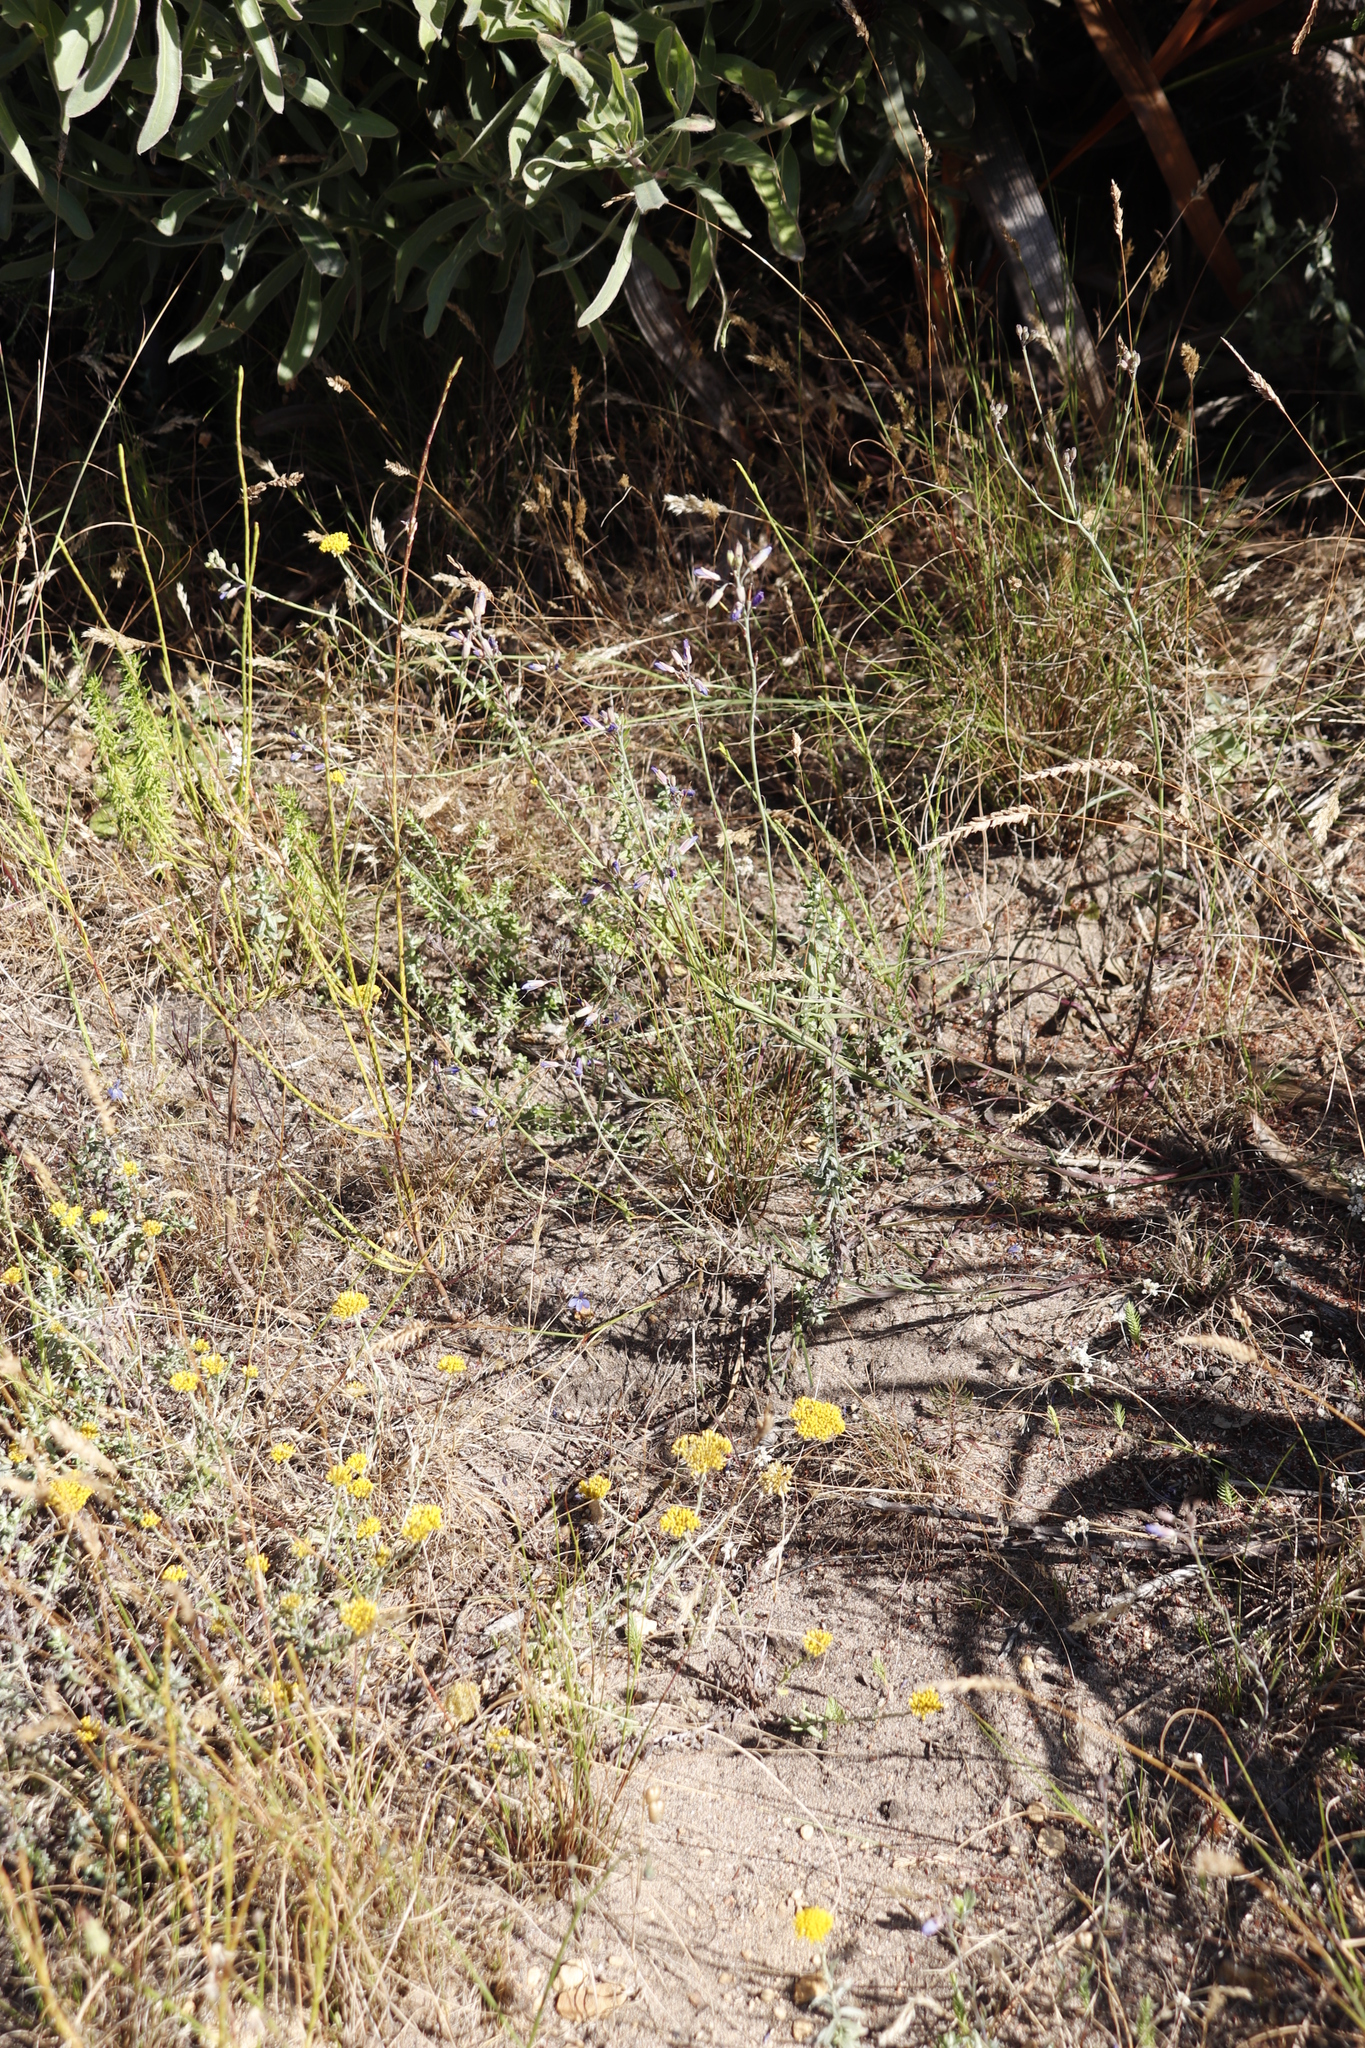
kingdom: Plantae
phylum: Tracheophyta
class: Magnoliopsida
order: Brassicales
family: Brassicaceae
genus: Heliophila
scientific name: Heliophila linearis
